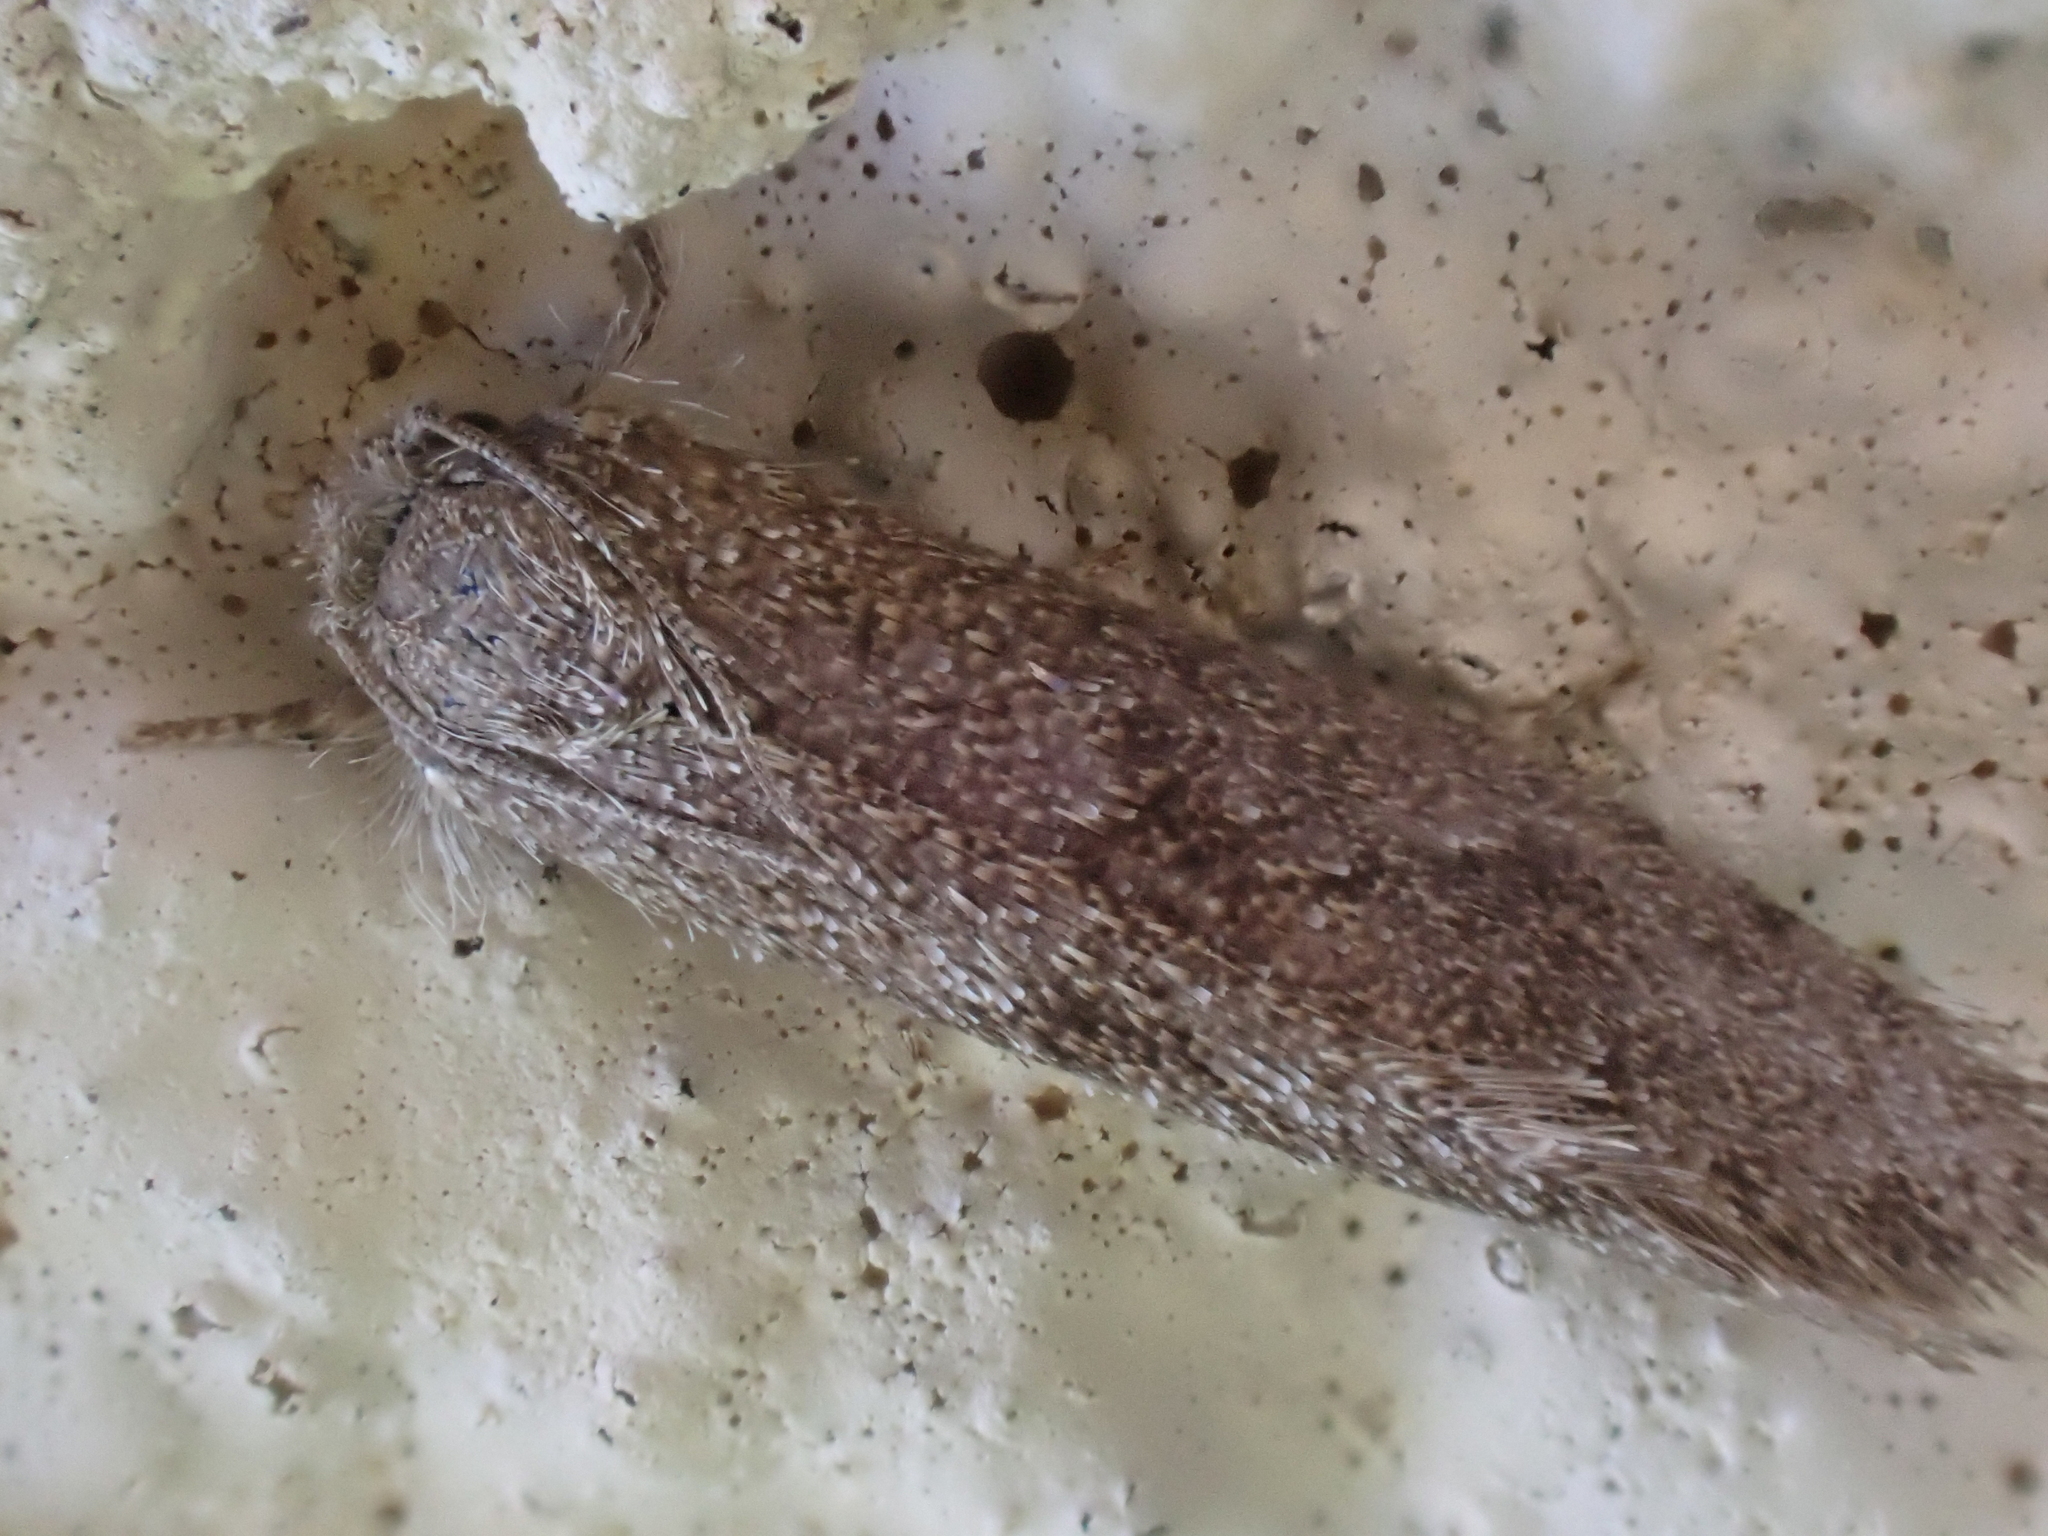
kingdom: Animalia
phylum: Arthropoda
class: Insecta
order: Lepidoptera
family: Tineidae
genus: Acrolophus
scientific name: Acrolophus heppneri
